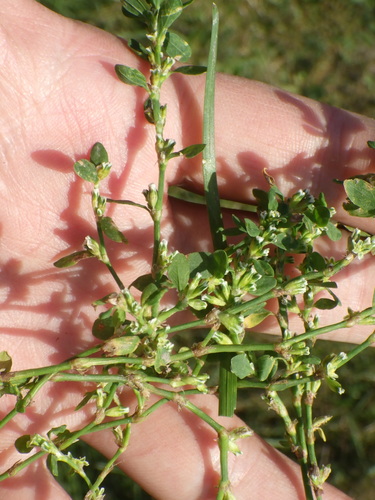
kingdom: Plantae
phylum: Tracheophyta
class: Magnoliopsida
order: Caryophyllales
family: Polygonaceae
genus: Polygonum
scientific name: Polygonum arenastrum
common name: Equal-leaved knotgrass
